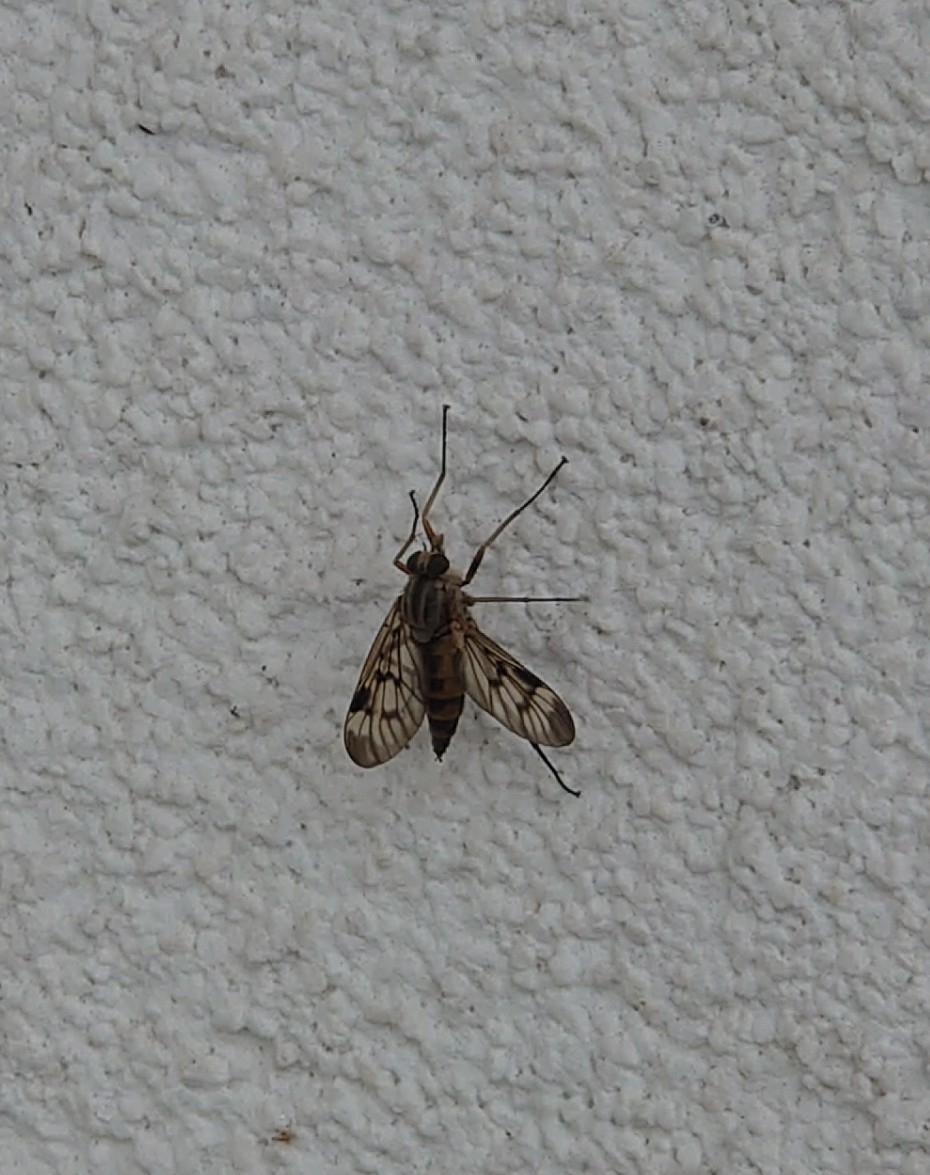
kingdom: Animalia
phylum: Arthropoda
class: Insecta
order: Diptera
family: Rhagionidae
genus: Rhagio
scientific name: Rhagio scolopacea
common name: Downlooker snipefly
